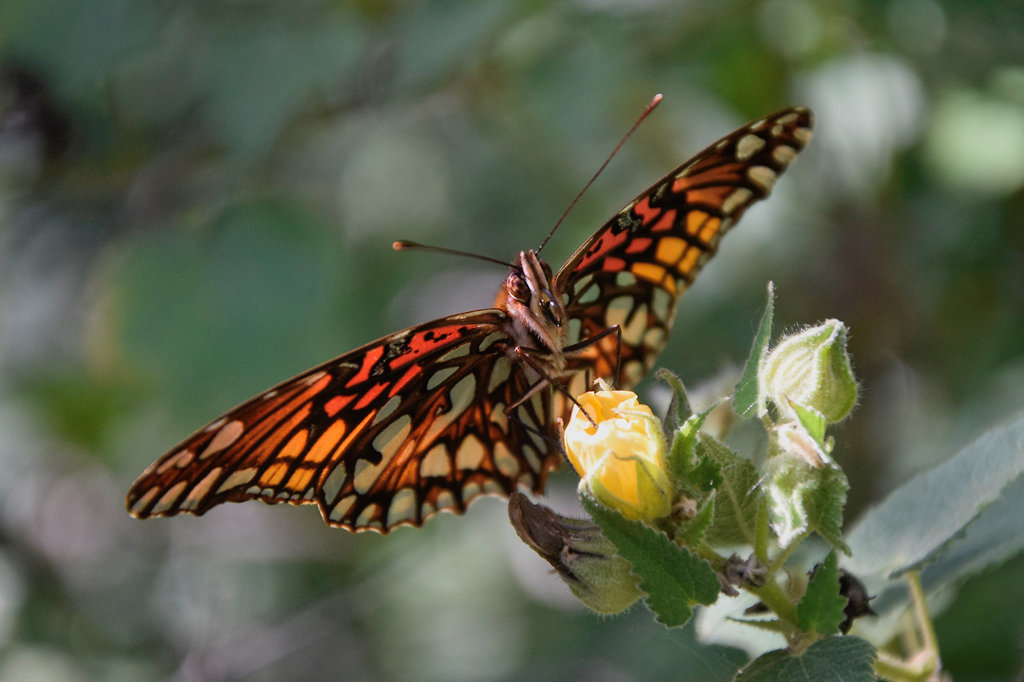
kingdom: Animalia
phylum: Arthropoda
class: Insecta
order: Lepidoptera
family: Nymphalidae
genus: Dione
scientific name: Dione moneta
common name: Mexican silverspot
